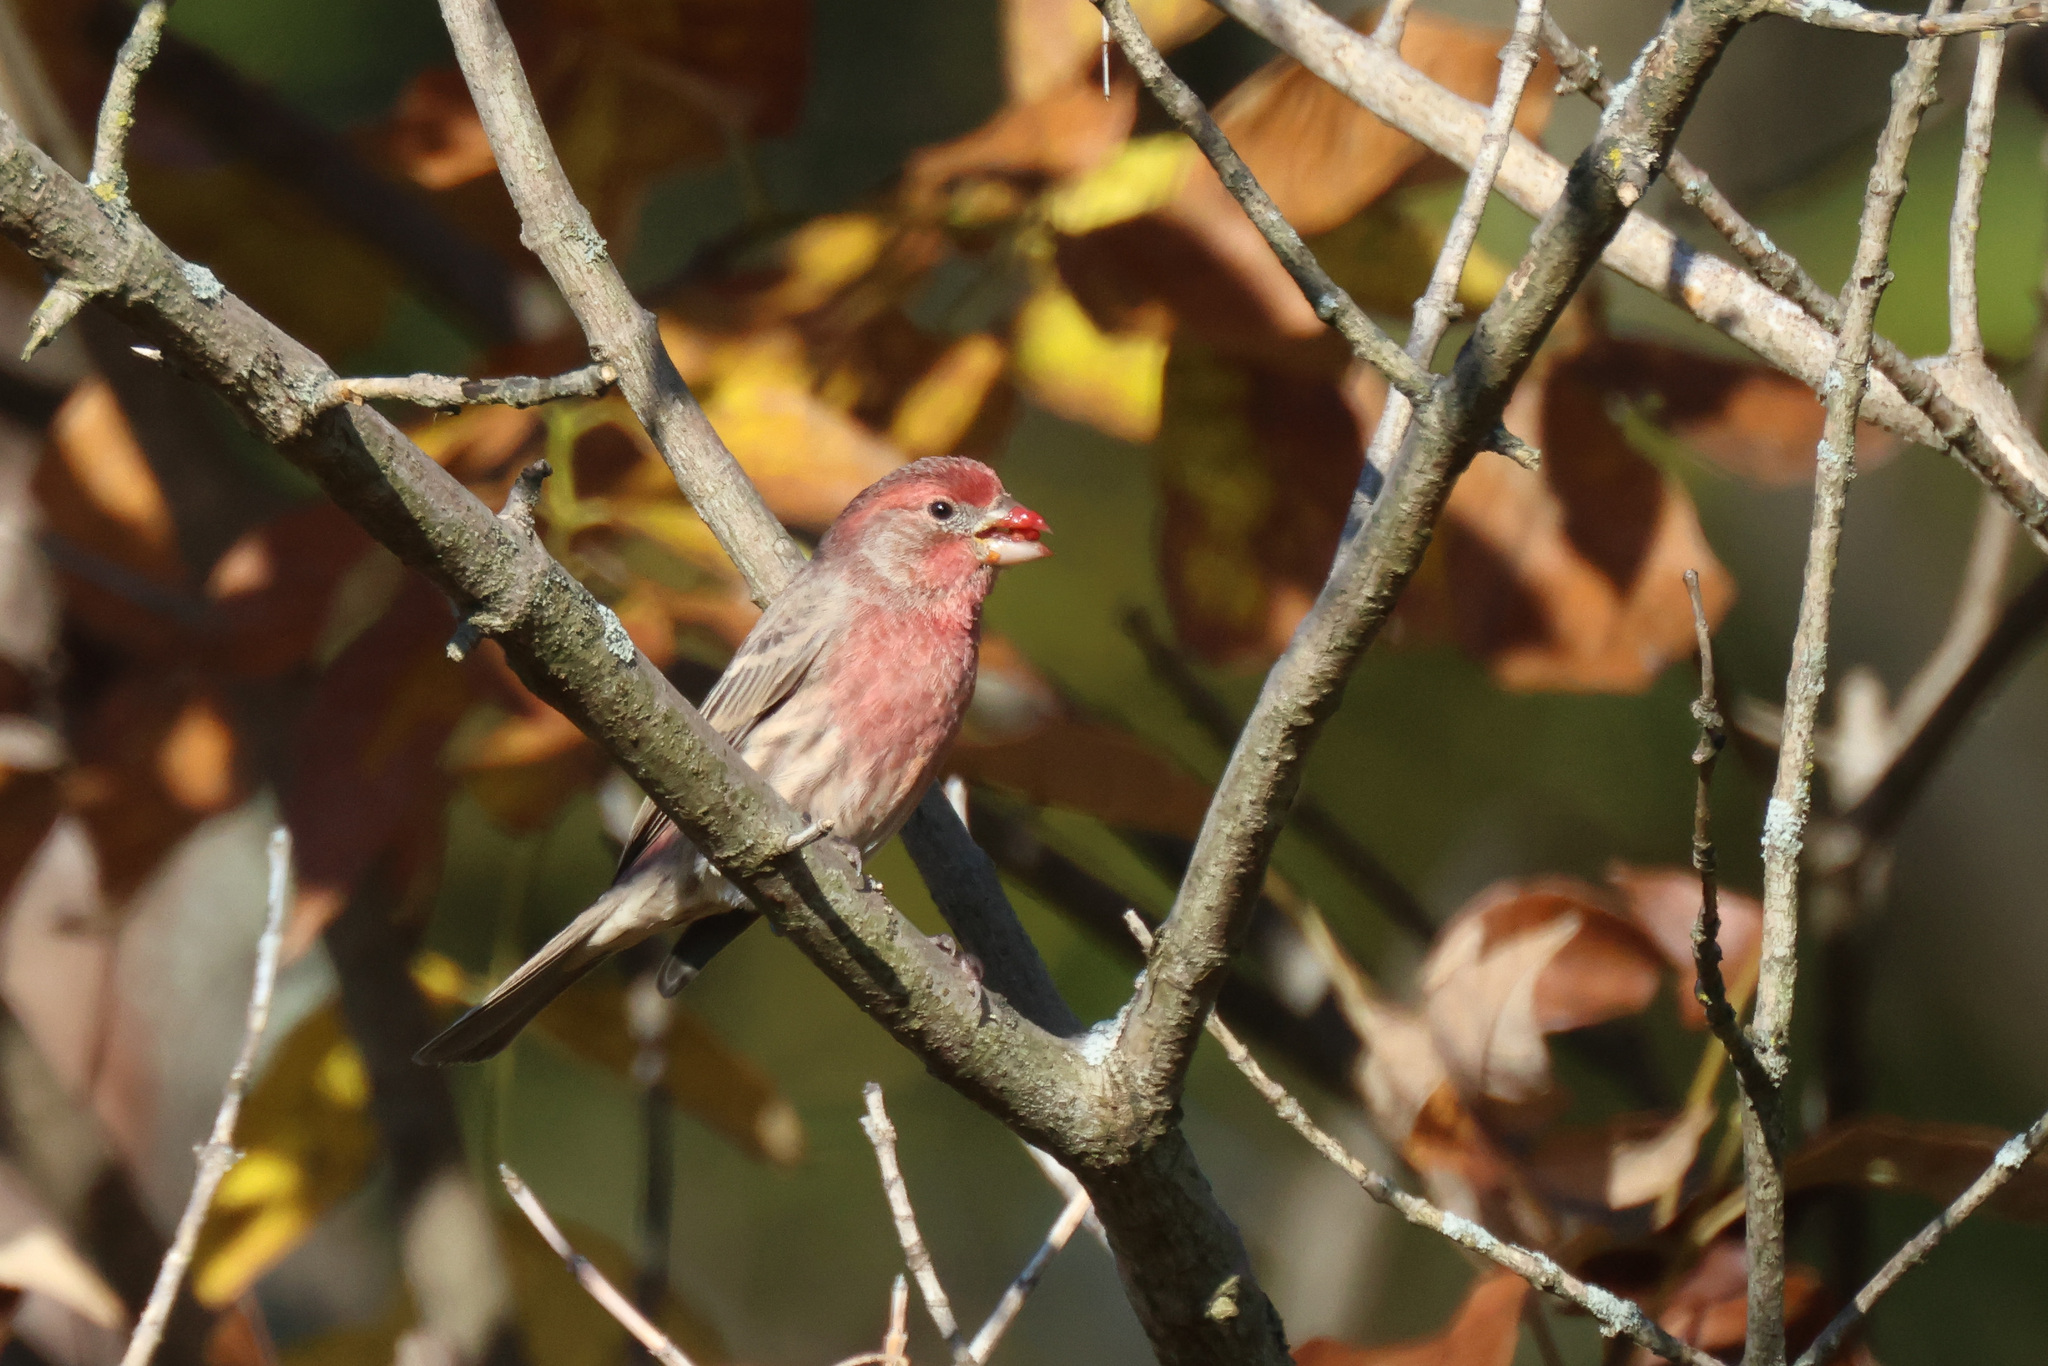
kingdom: Animalia
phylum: Chordata
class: Aves
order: Passeriformes
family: Fringillidae
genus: Haemorhous
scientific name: Haemorhous mexicanus
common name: House finch
